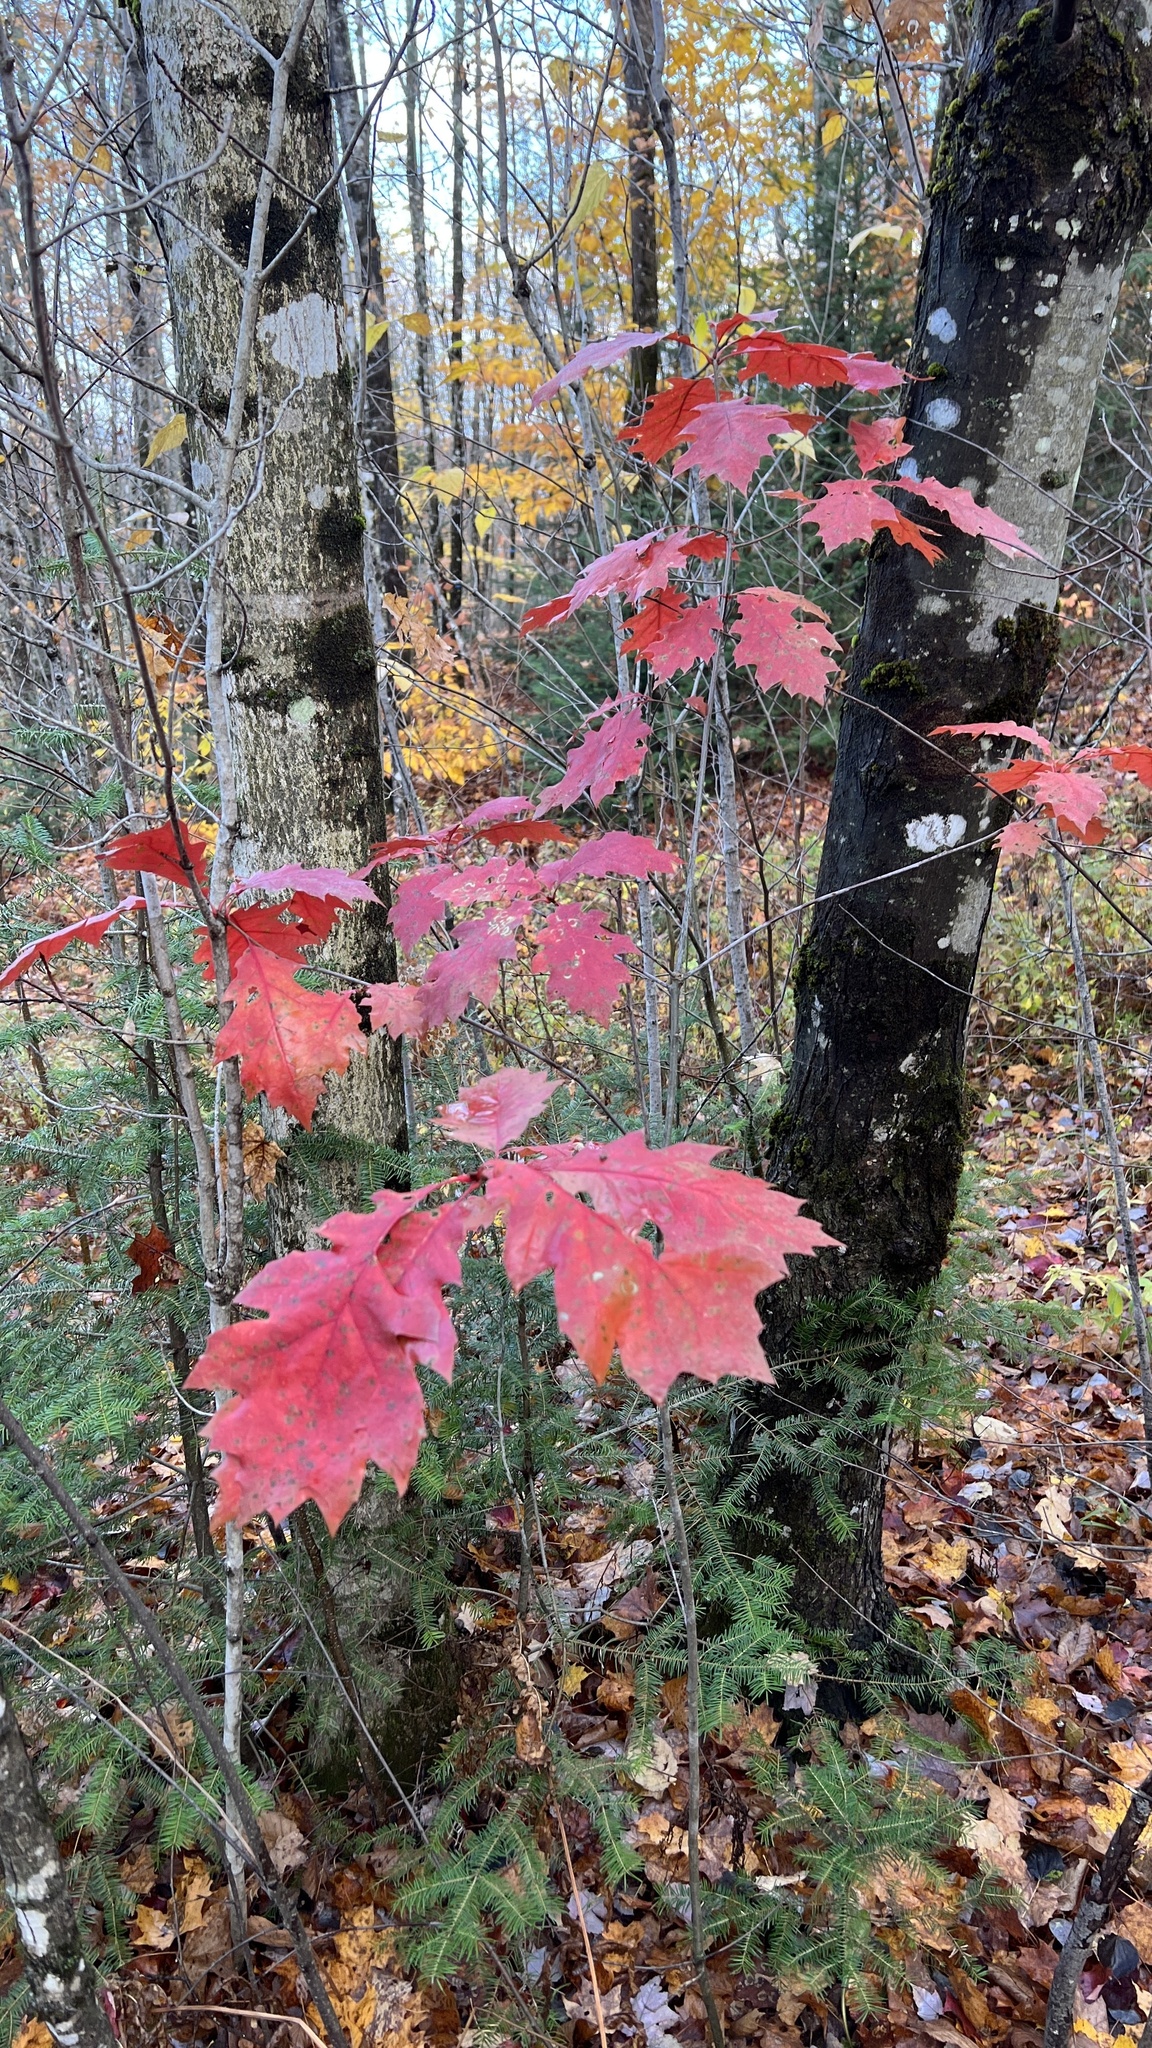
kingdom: Plantae
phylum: Tracheophyta
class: Magnoliopsida
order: Fagales
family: Fagaceae
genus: Quercus
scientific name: Quercus rubra
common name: Red oak
